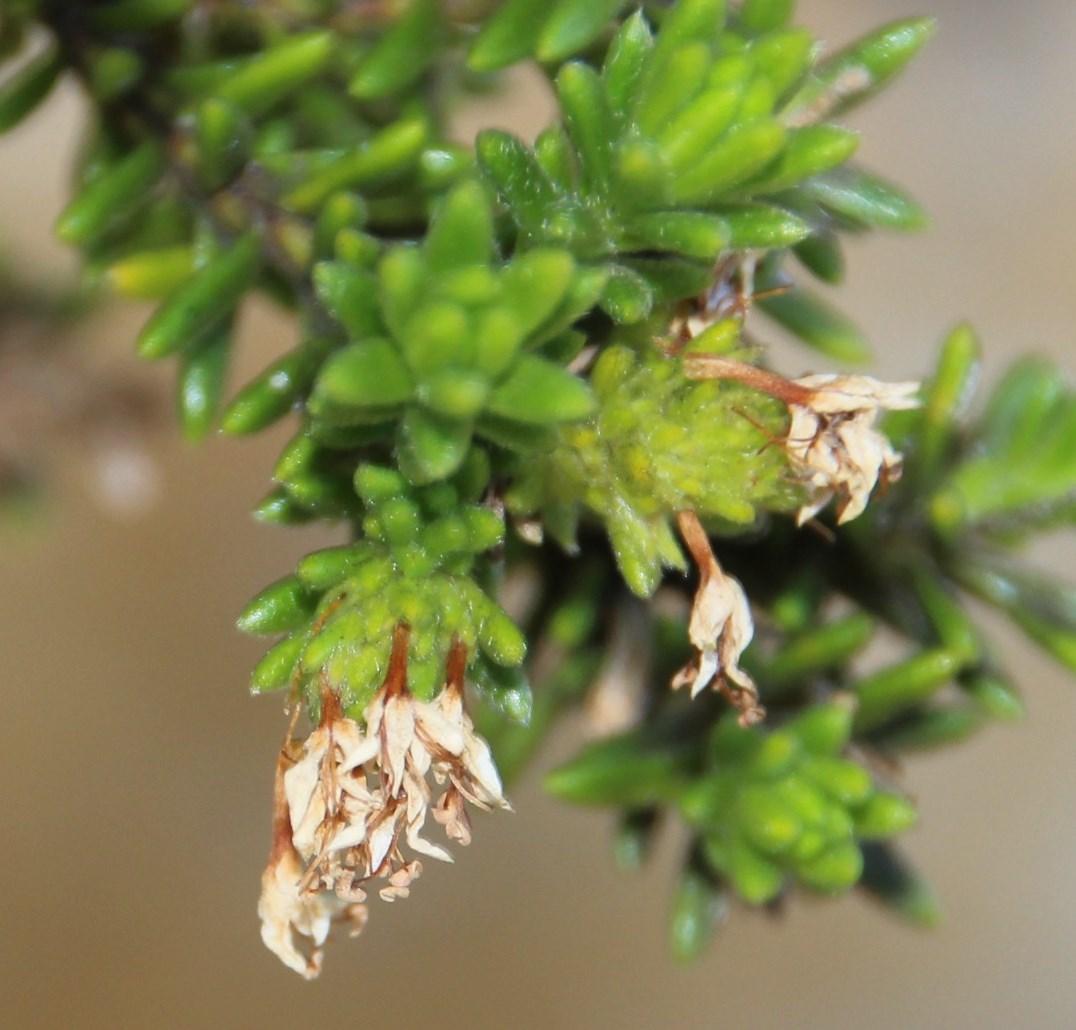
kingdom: Plantae
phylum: Tracheophyta
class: Magnoliopsida
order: Lamiales
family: Stilbaceae
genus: Stilbe
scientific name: Stilbe rupestris
